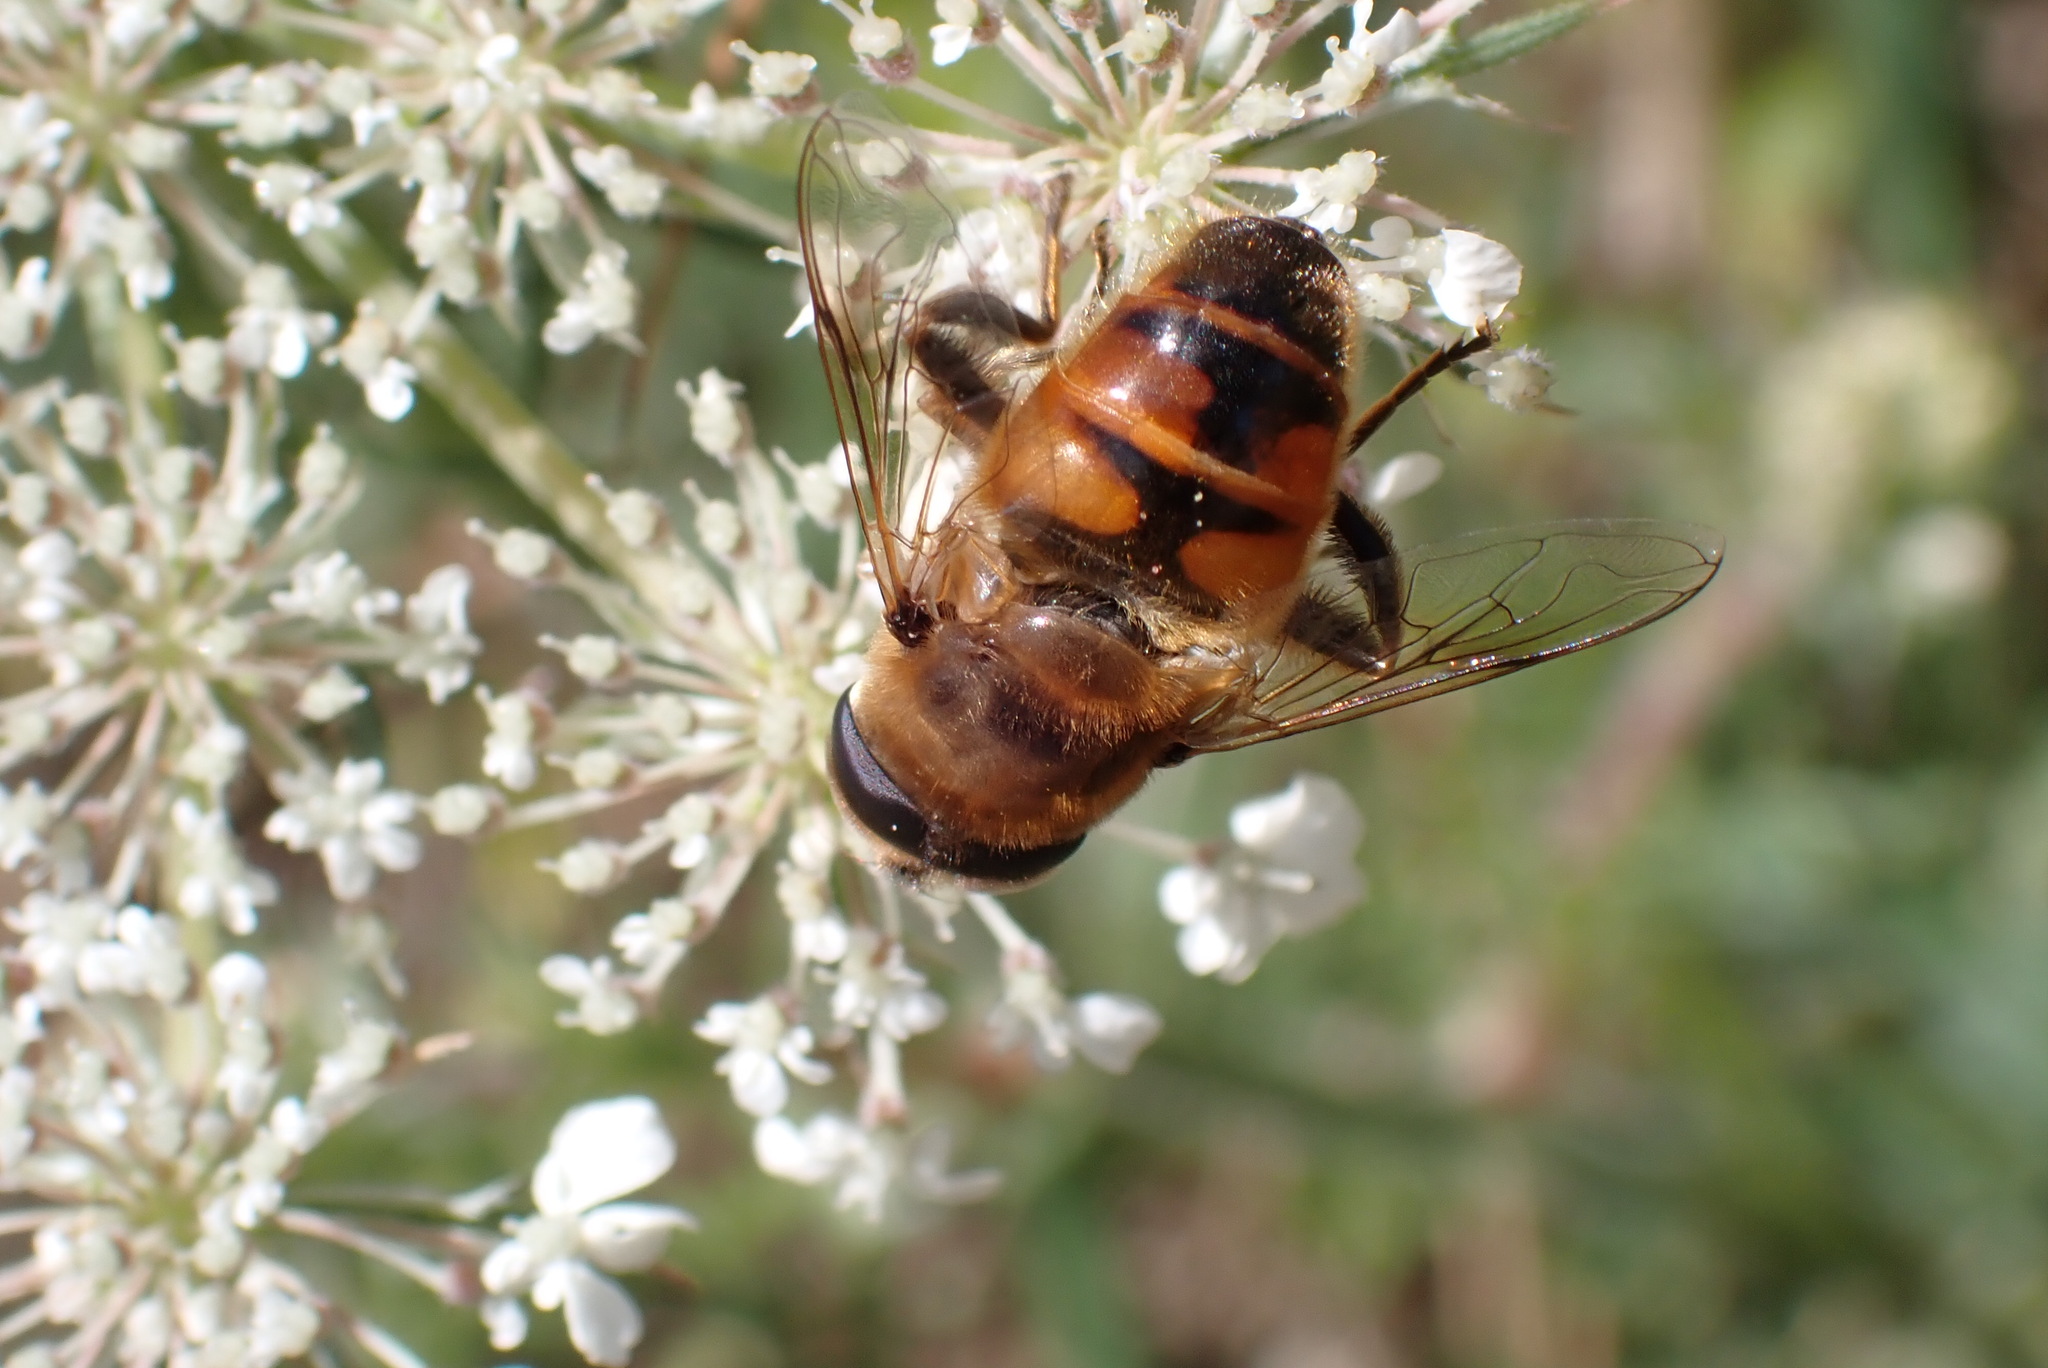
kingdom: Animalia
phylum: Arthropoda
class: Insecta
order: Diptera
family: Syrphidae
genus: Eristalis
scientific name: Eristalis tenax
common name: Drone fly
